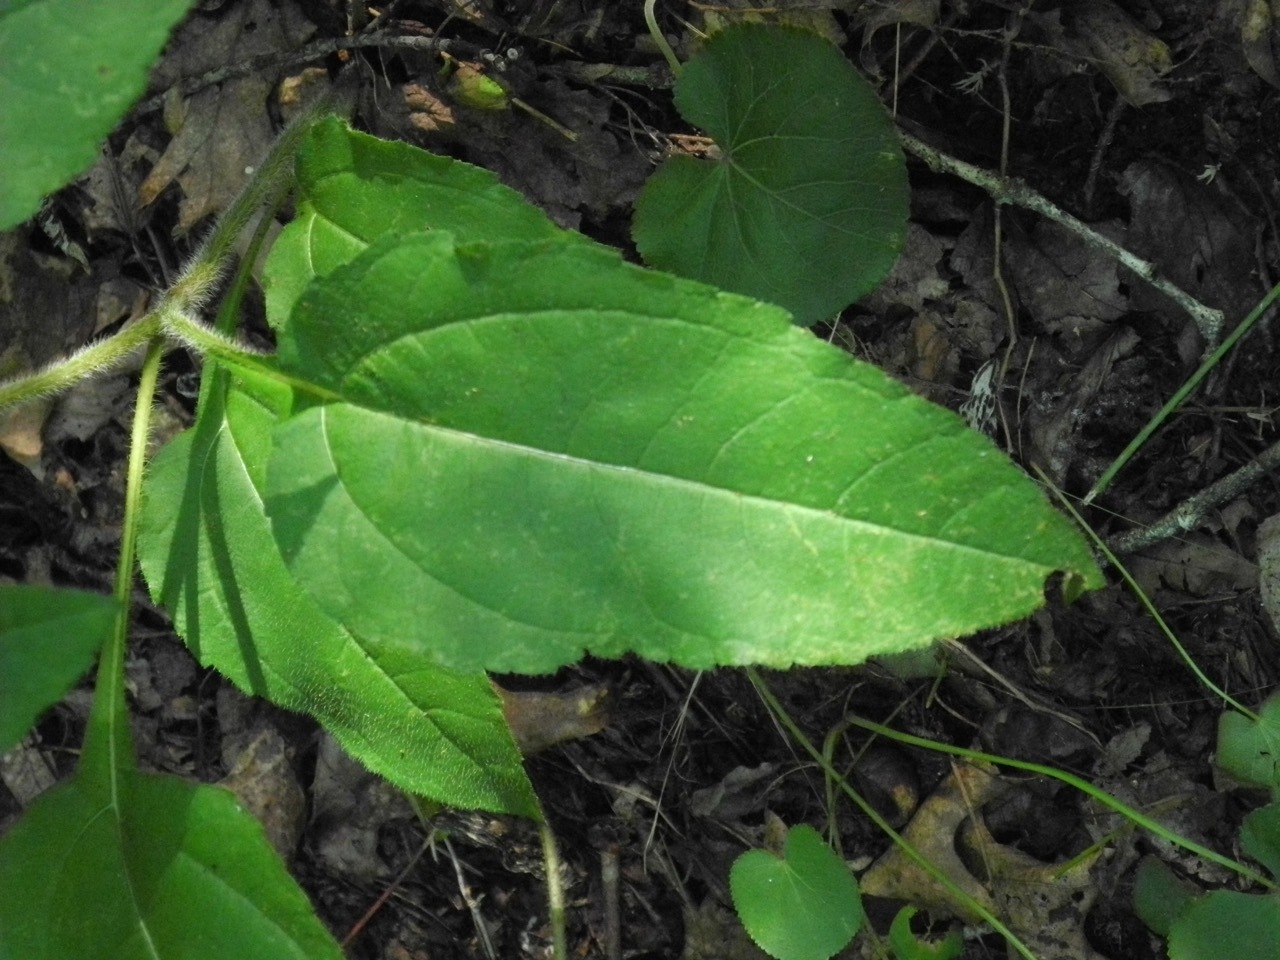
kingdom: Plantae
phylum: Tracheophyta
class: Magnoliopsida
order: Asterales
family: Asteraceae
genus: Heliopsis
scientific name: Heliopsis helianthoides
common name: False sunflower
